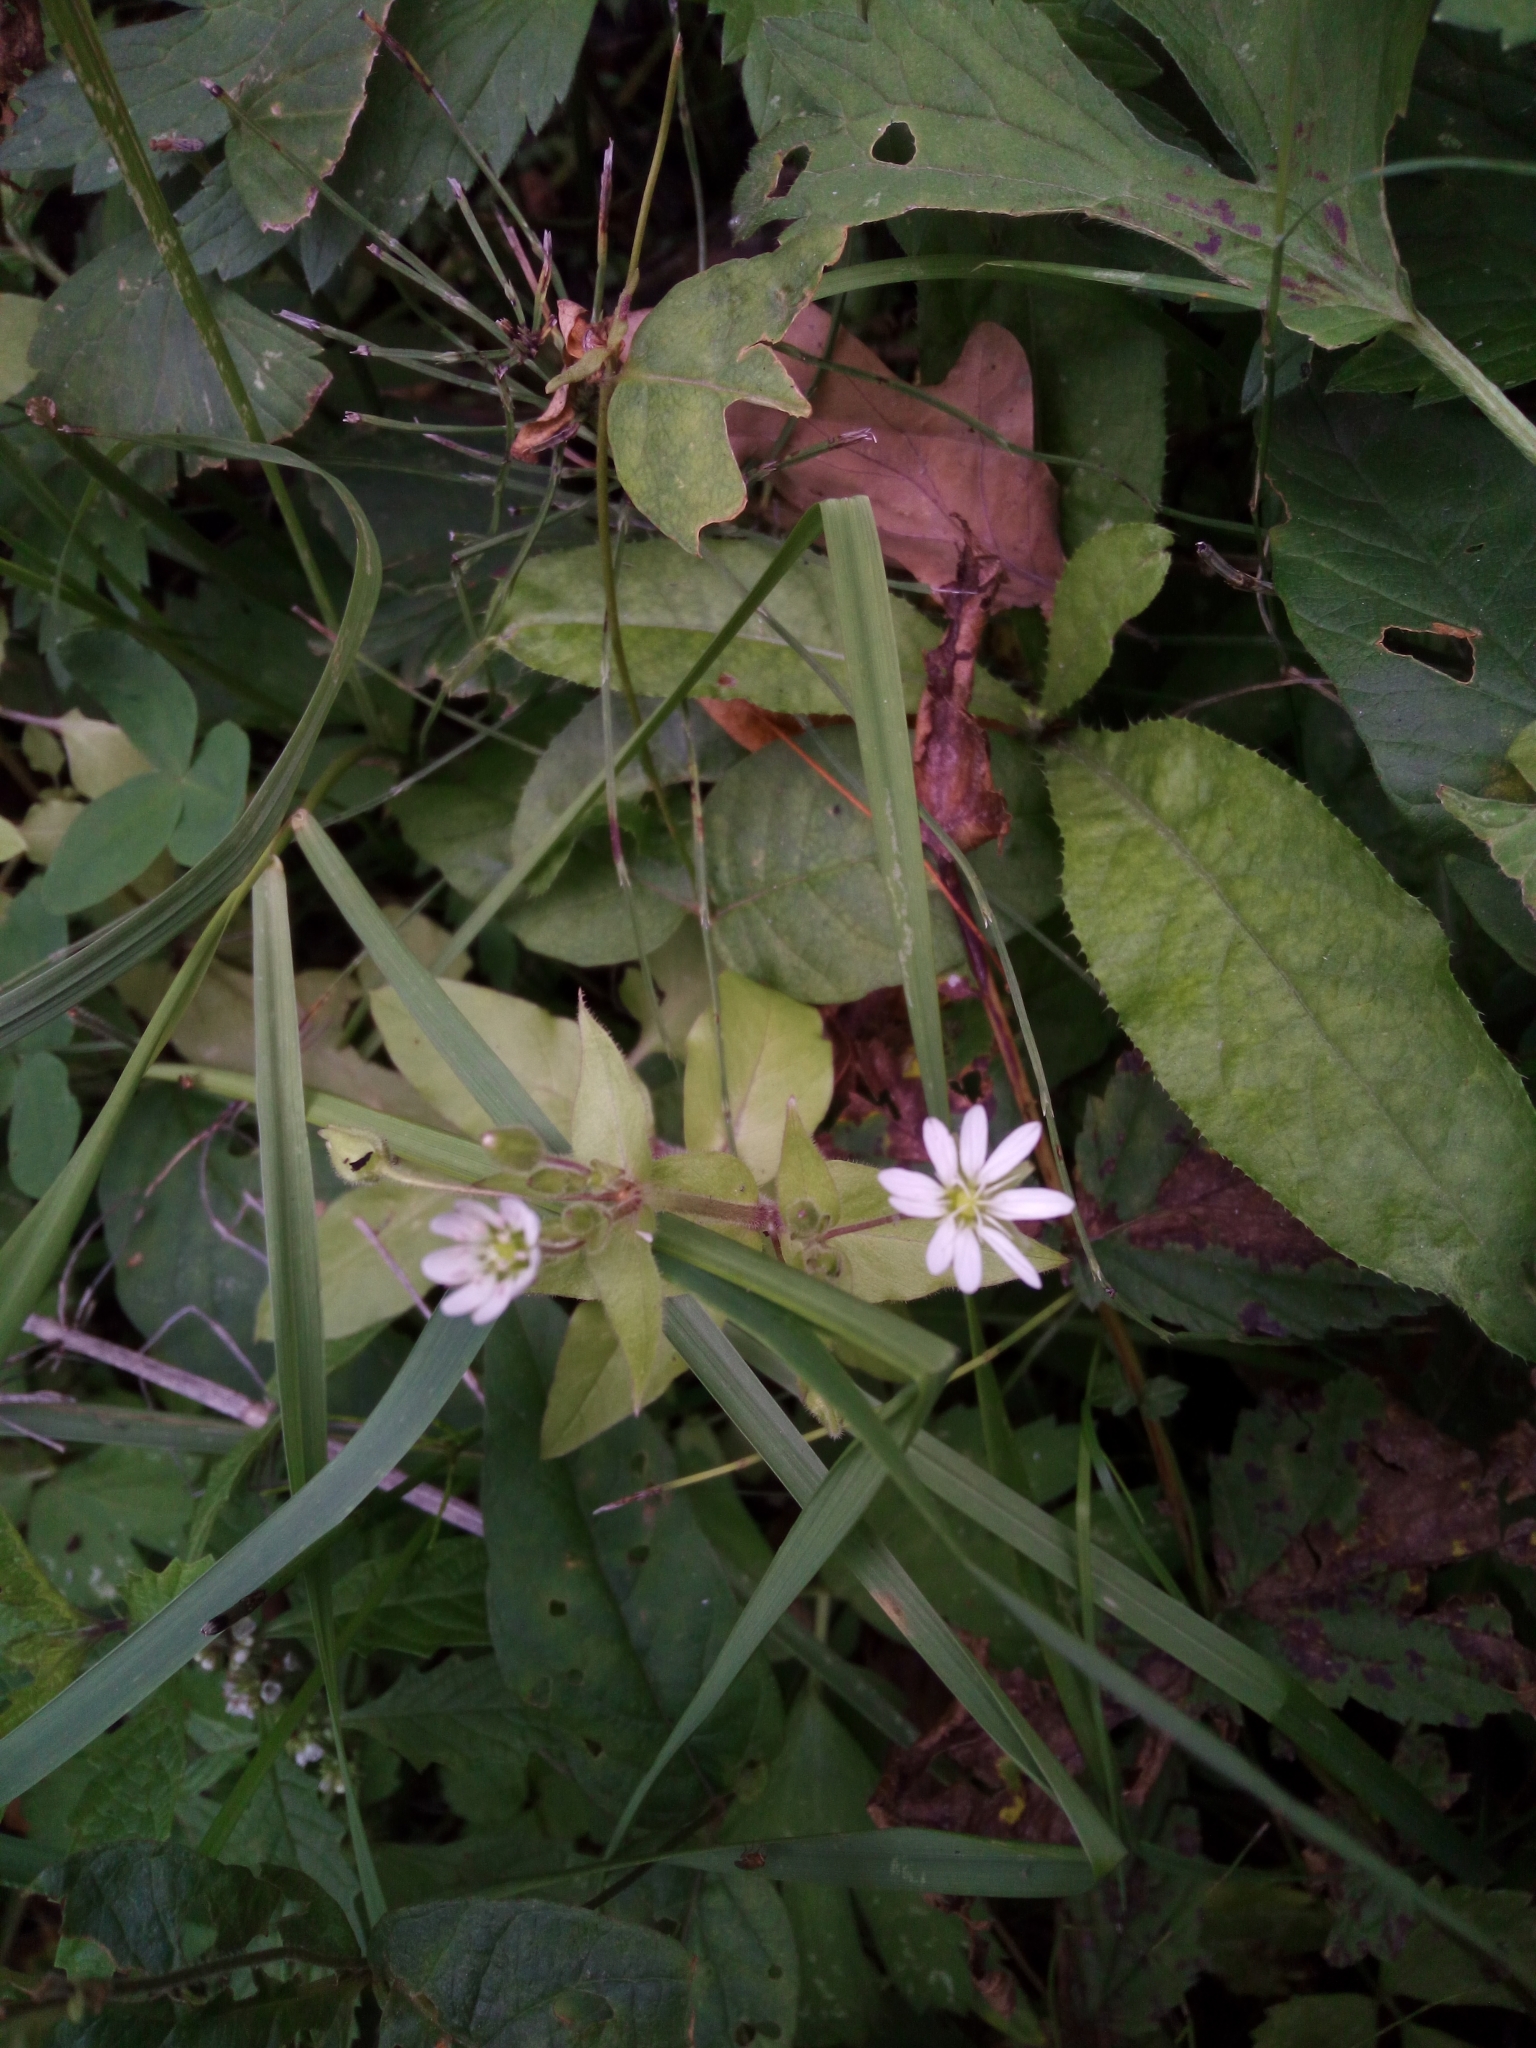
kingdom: Plantae
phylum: Tracheophyta
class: Magnoliopsida
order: Caryophyllales
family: Caryophyllaceae
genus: Stellaria
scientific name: Stellaria aquatica
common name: Water chickweed
